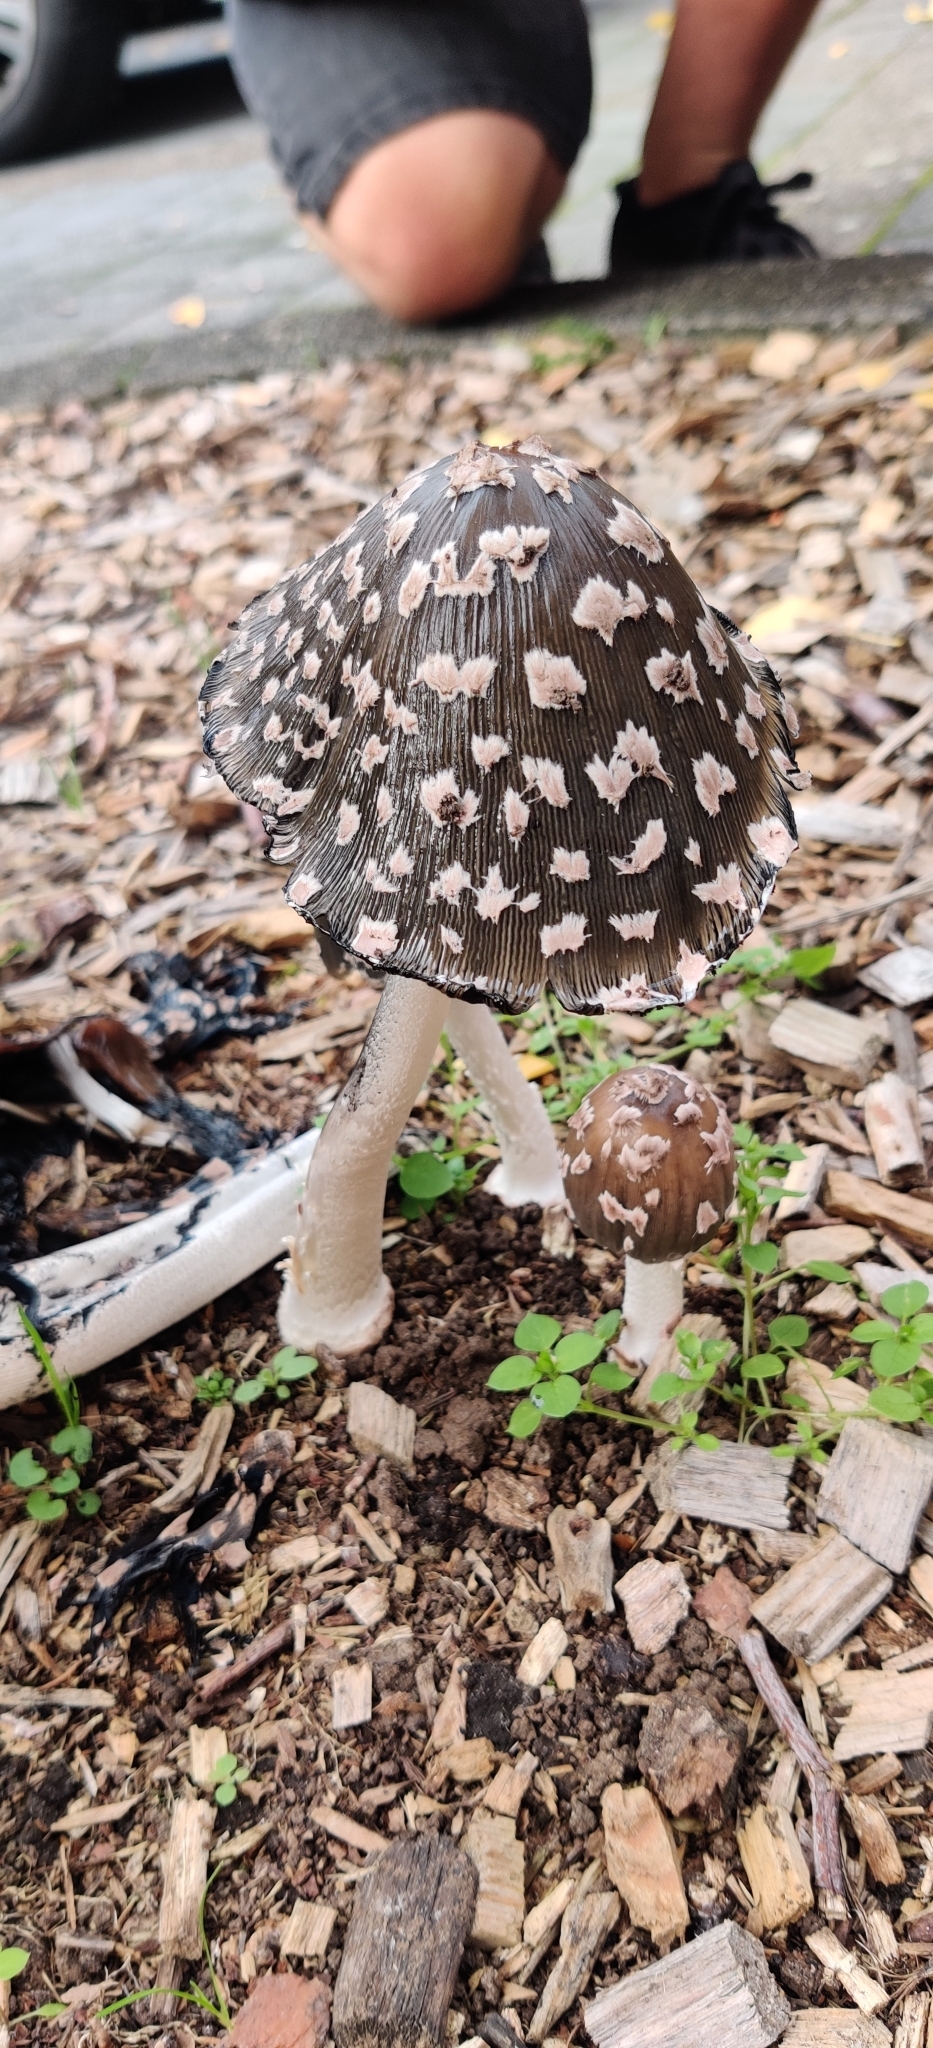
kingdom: Fungi
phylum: Basidiomycota
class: Agaricomycetes
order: Agaricales
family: Psathyrellaceae
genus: Coprinopsis
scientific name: Coprinopsis picacea
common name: Magpie inkcap
